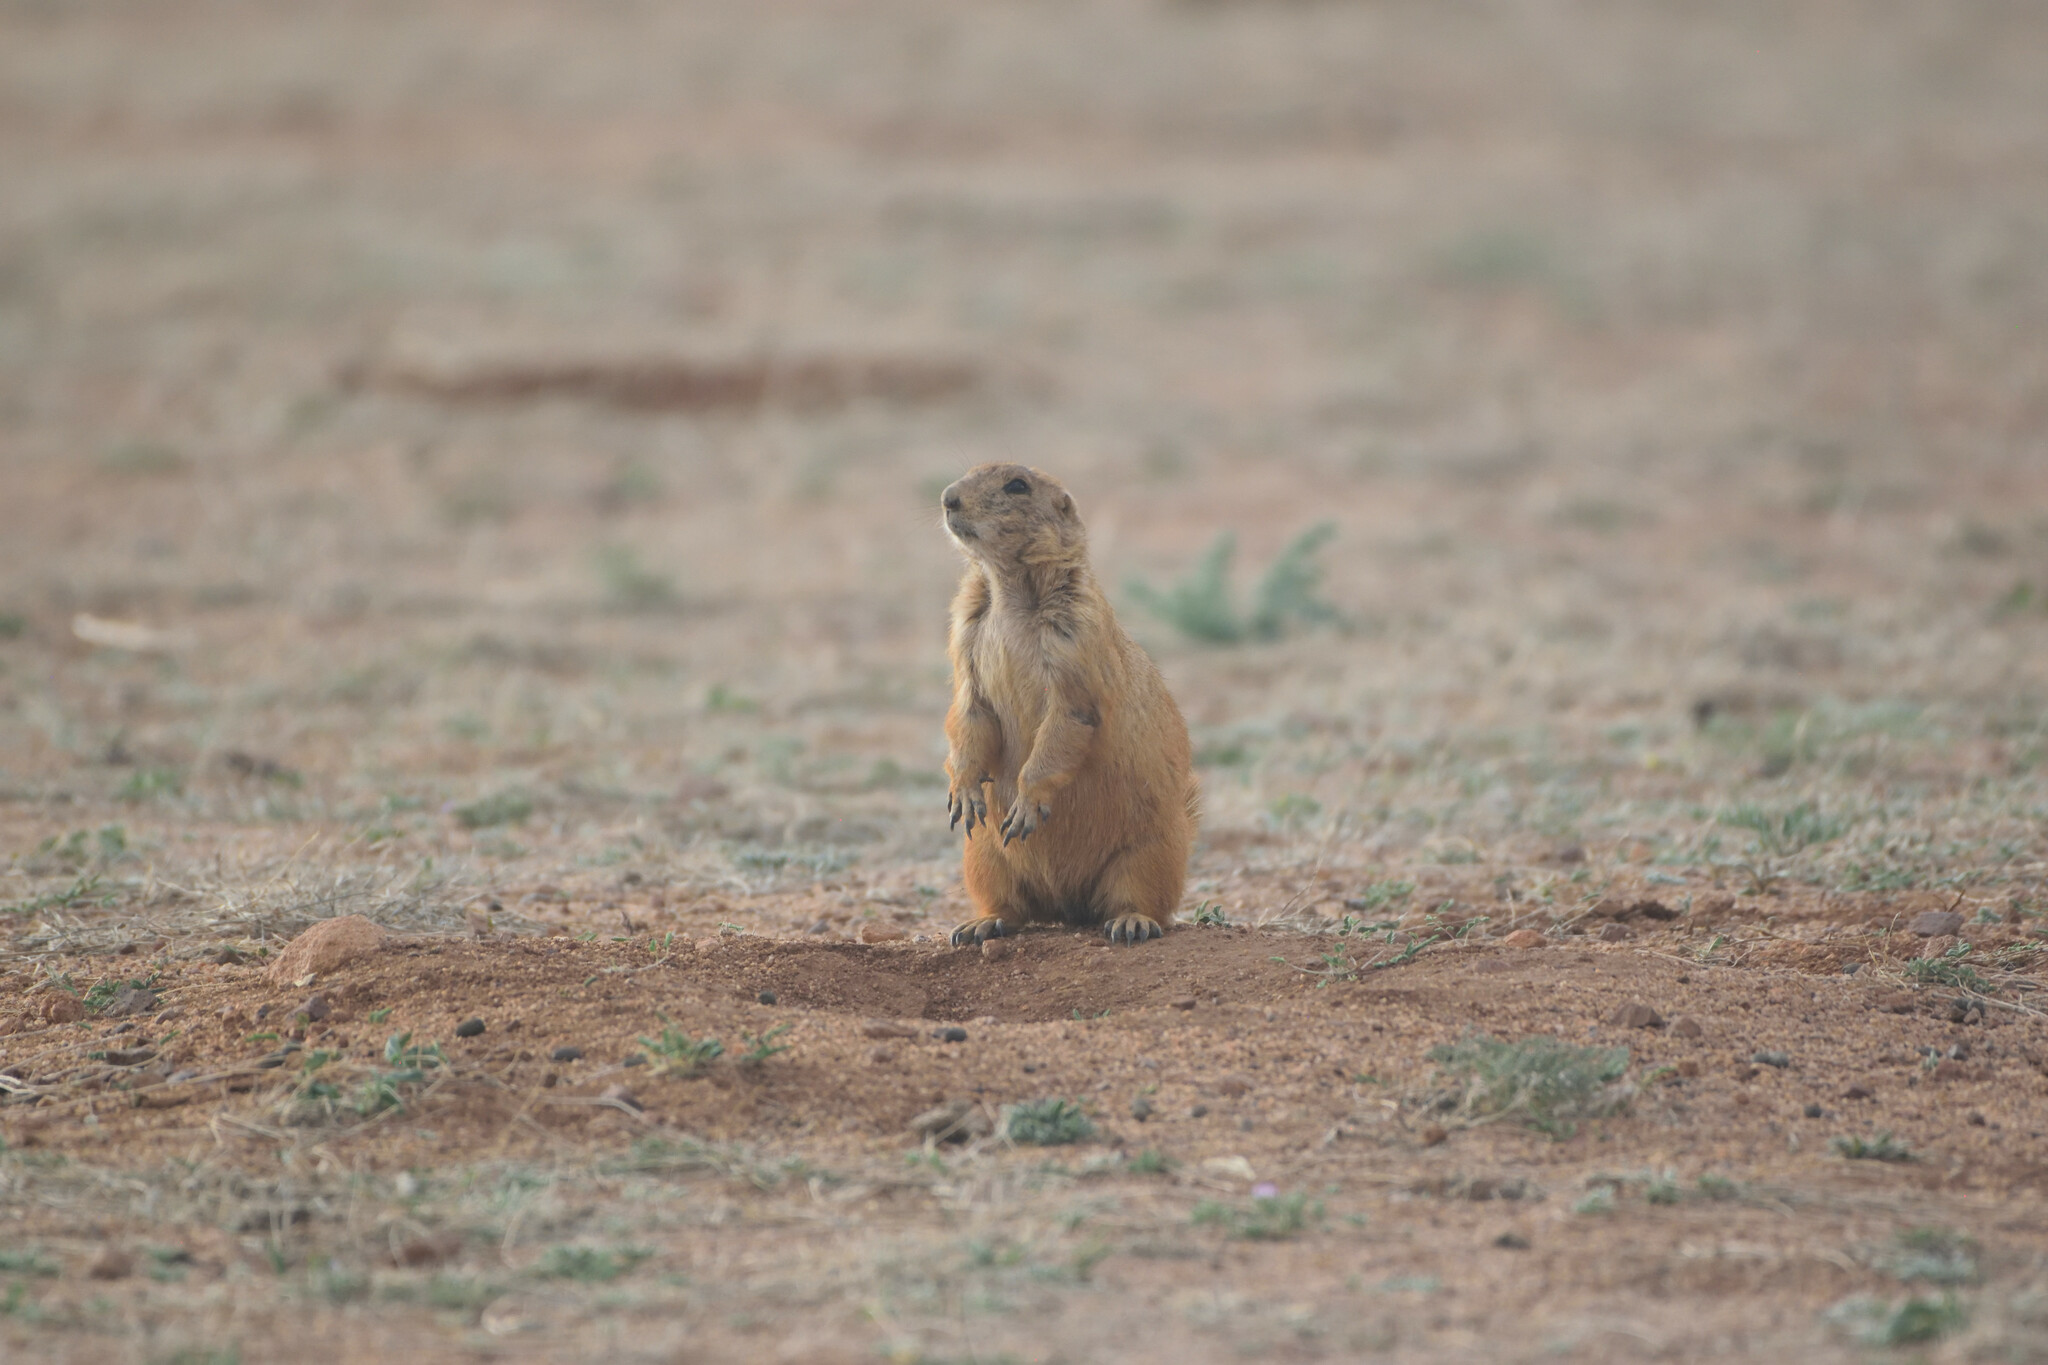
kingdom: Animalia
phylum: Chordata
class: Mammalia
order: Rodentia
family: Sciuridae
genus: Cynomys
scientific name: Cynomys ludovicianus
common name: Black-tailed prairie dog
